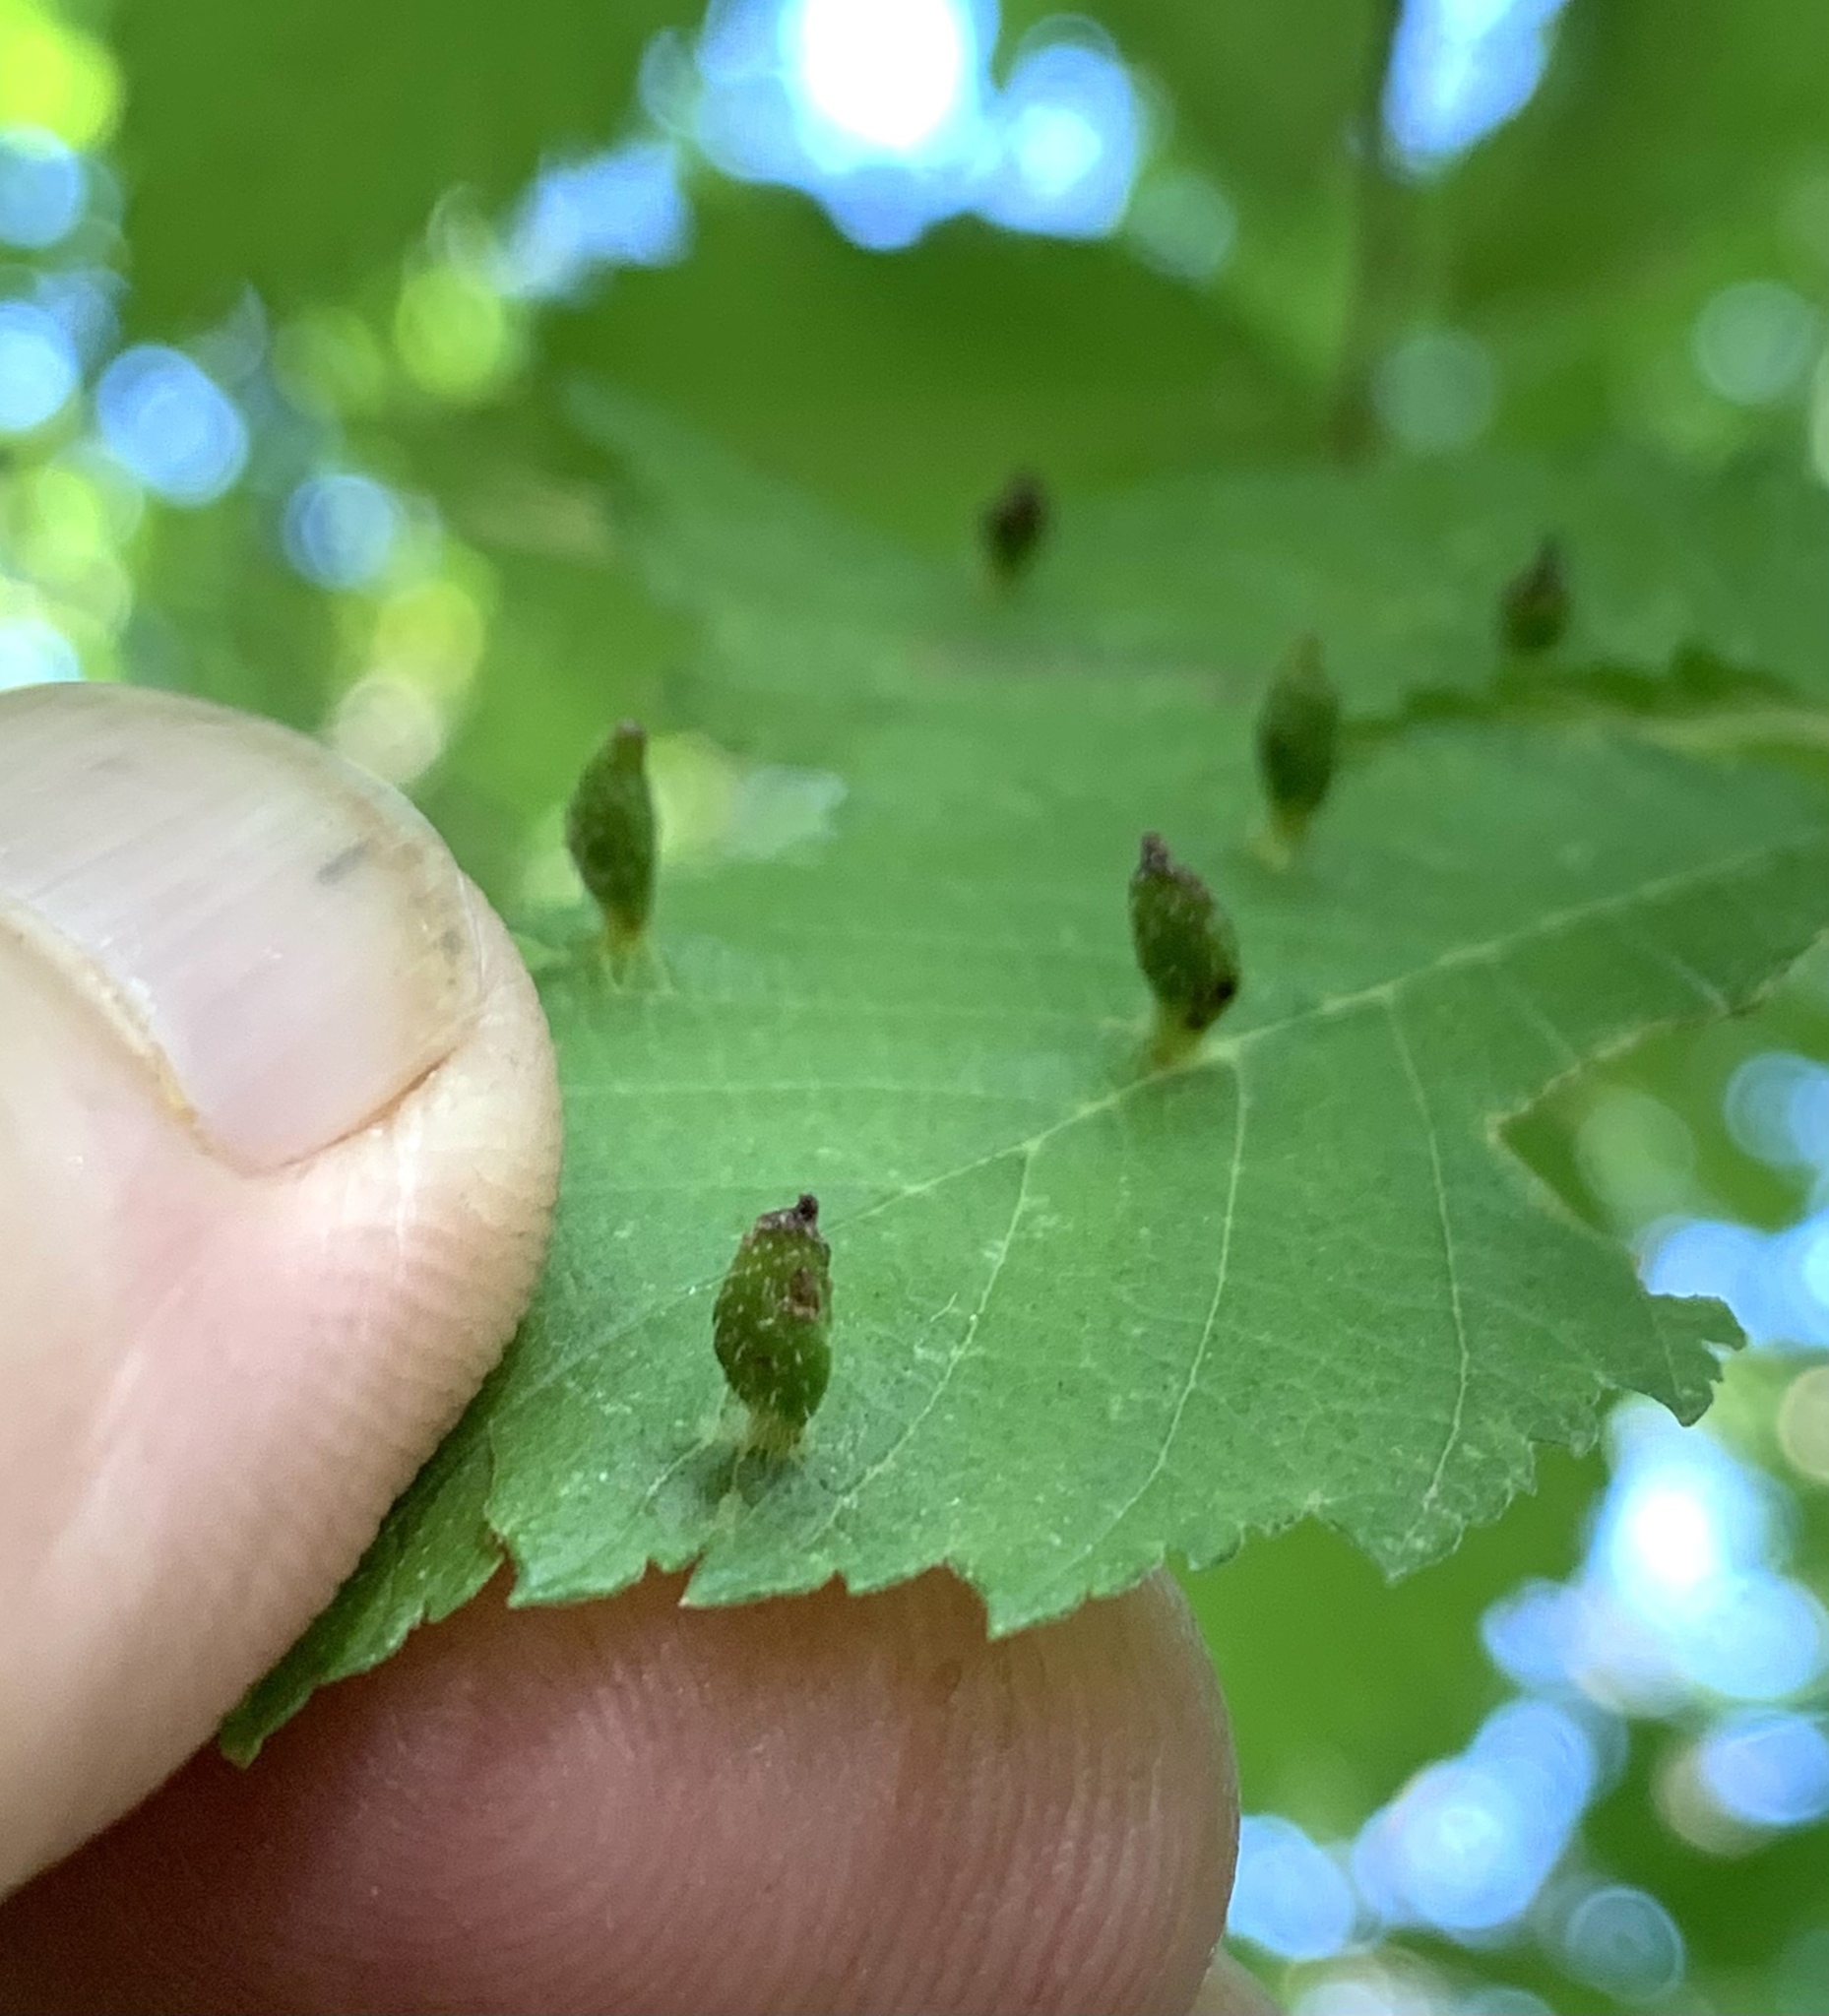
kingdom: Animalia
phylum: Arthropoda
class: Arachnida
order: Trombidiformes
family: Eriophyidae
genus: Aceria
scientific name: Aceria
